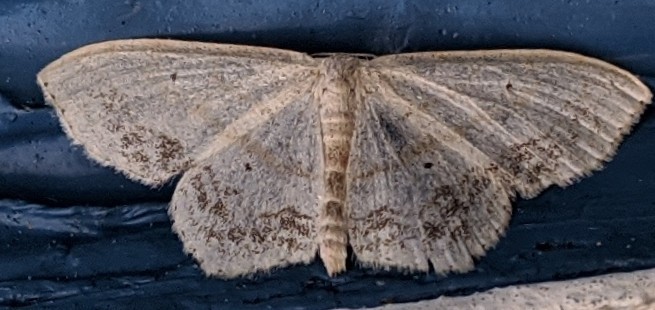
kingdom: Animalia
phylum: Arthropoda
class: Insecta
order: Lepidoptera
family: Geometridae
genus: Scopula
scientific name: Scopula limboundata
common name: Large lace border
